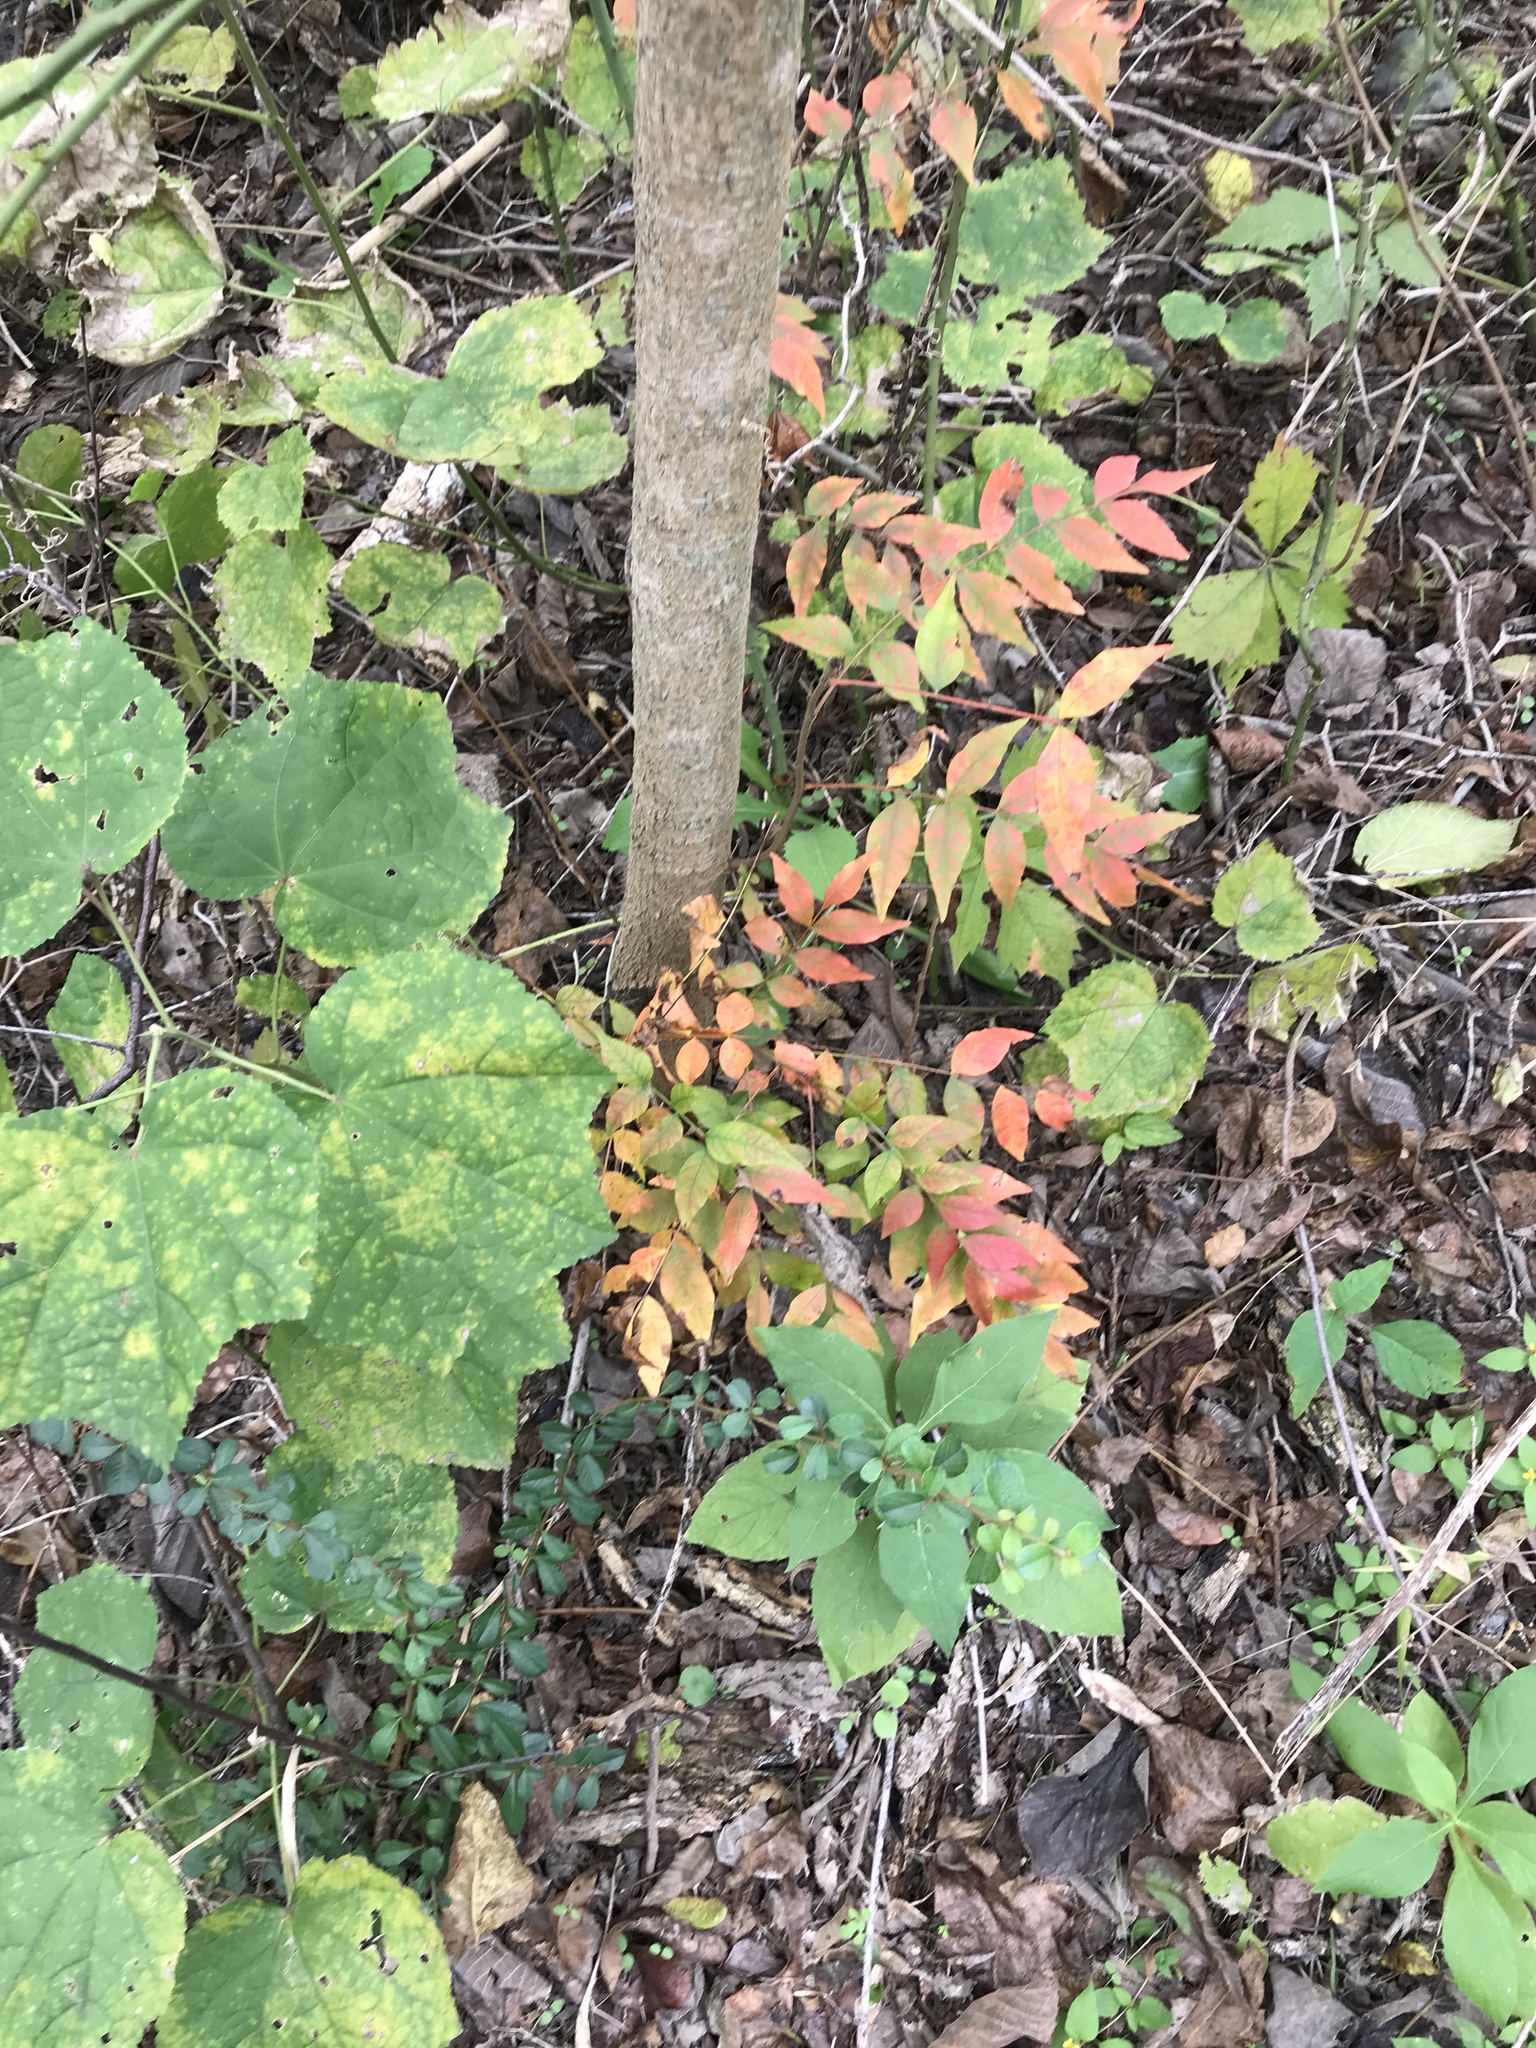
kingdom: Plantae
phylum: Tracheophyta
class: Magnoliopsida
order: Sapindales
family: Anacardiaceae
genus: Pistacia
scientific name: Pistacia chinensis
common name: Chinese pistache
